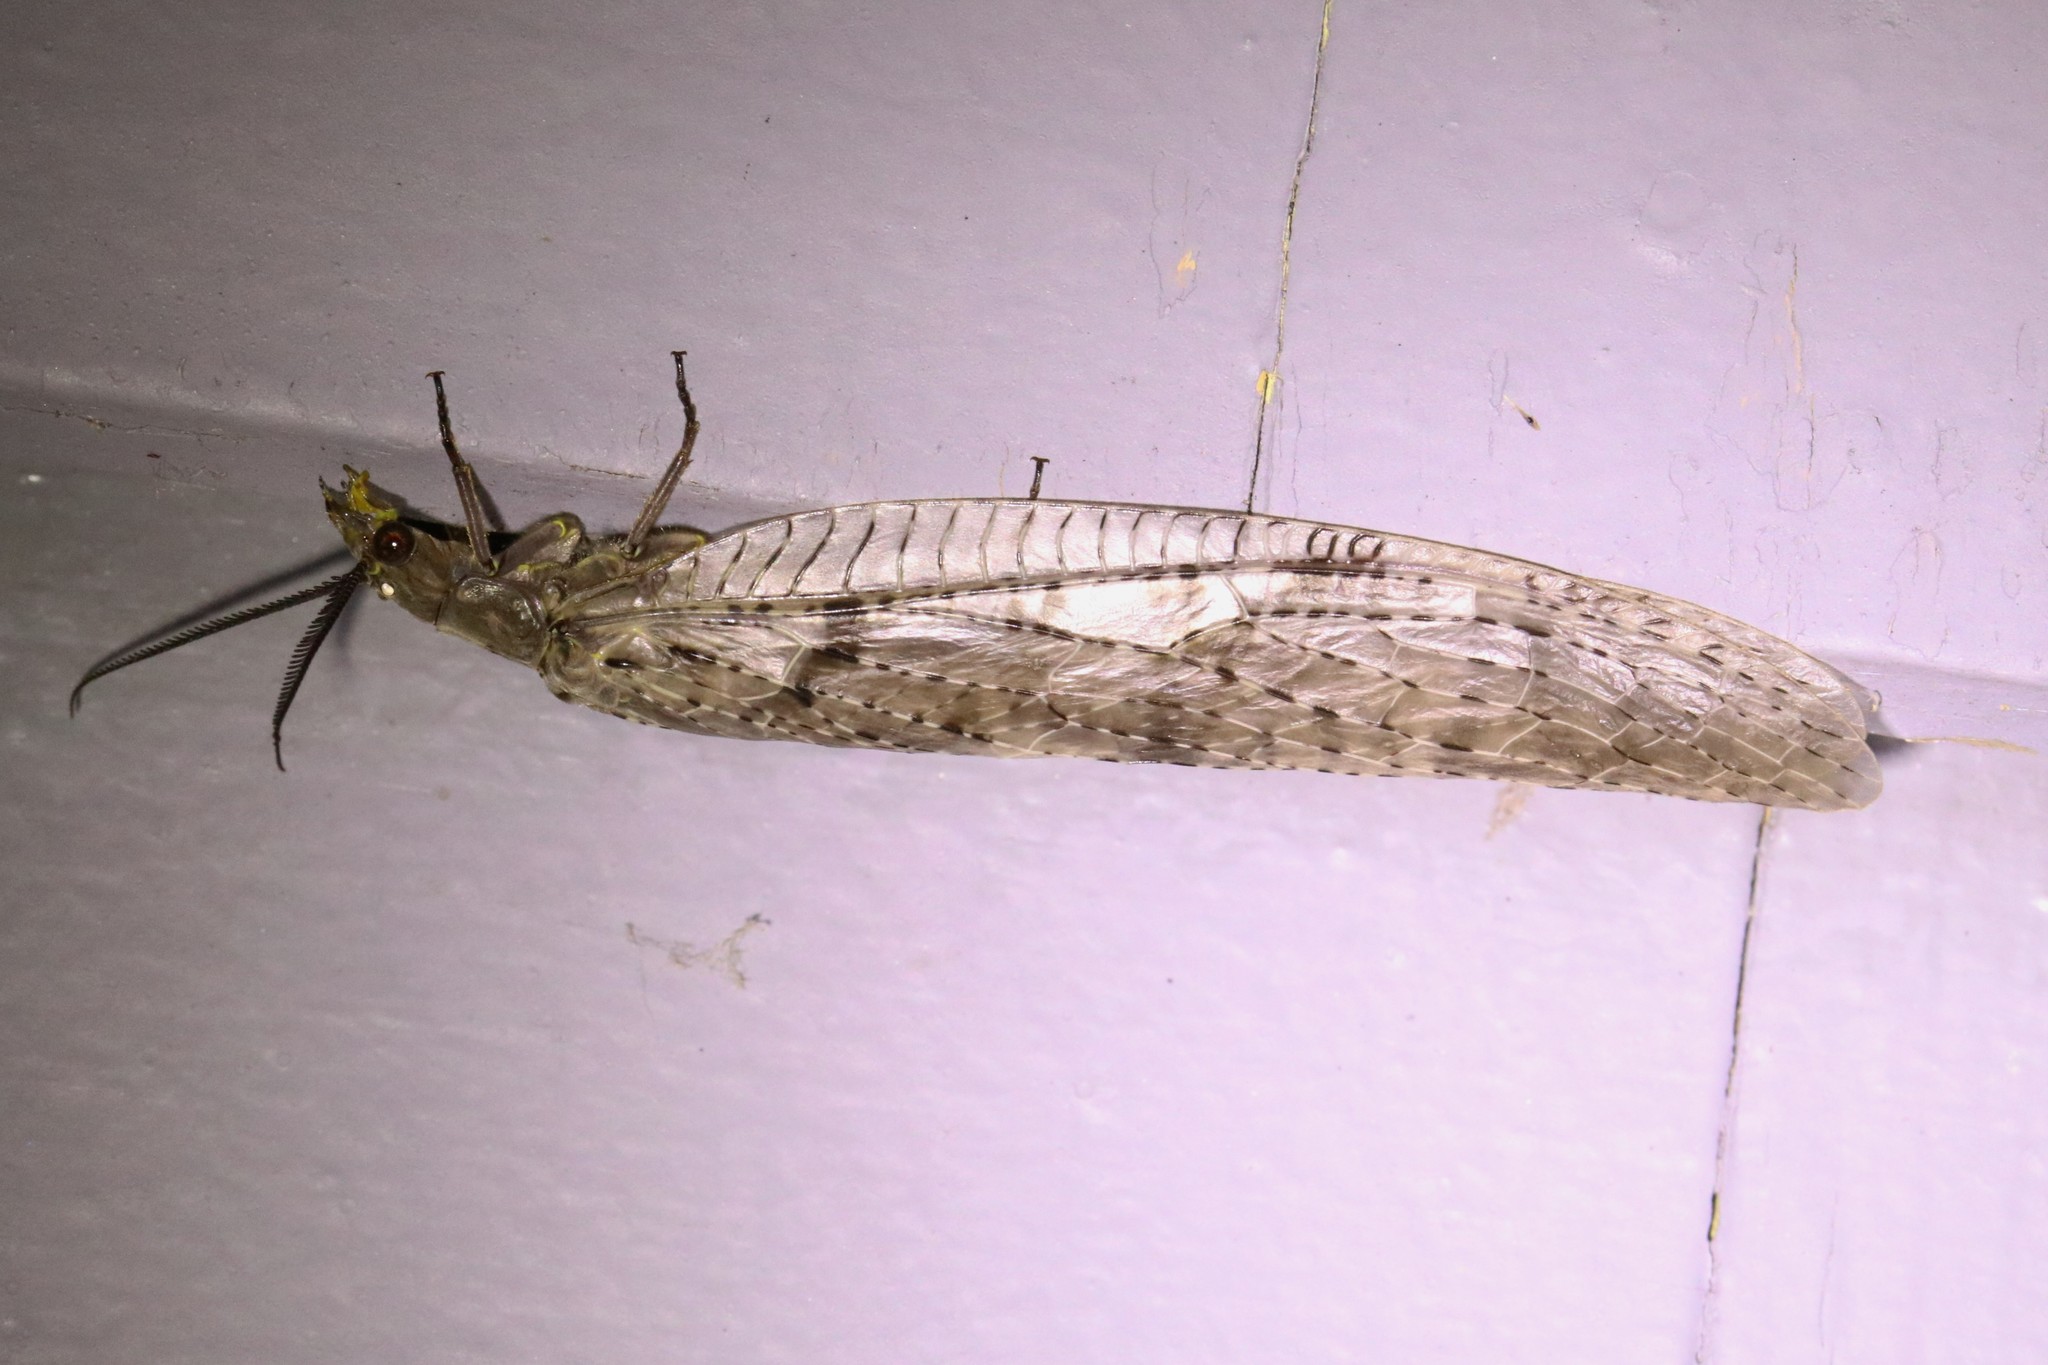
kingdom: Animalia
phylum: Arthropoda
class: Insecta
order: Megaloptera
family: Corydalidae
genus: Chauliodes
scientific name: Chauliodes pectinicornis
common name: Summer fishfly
